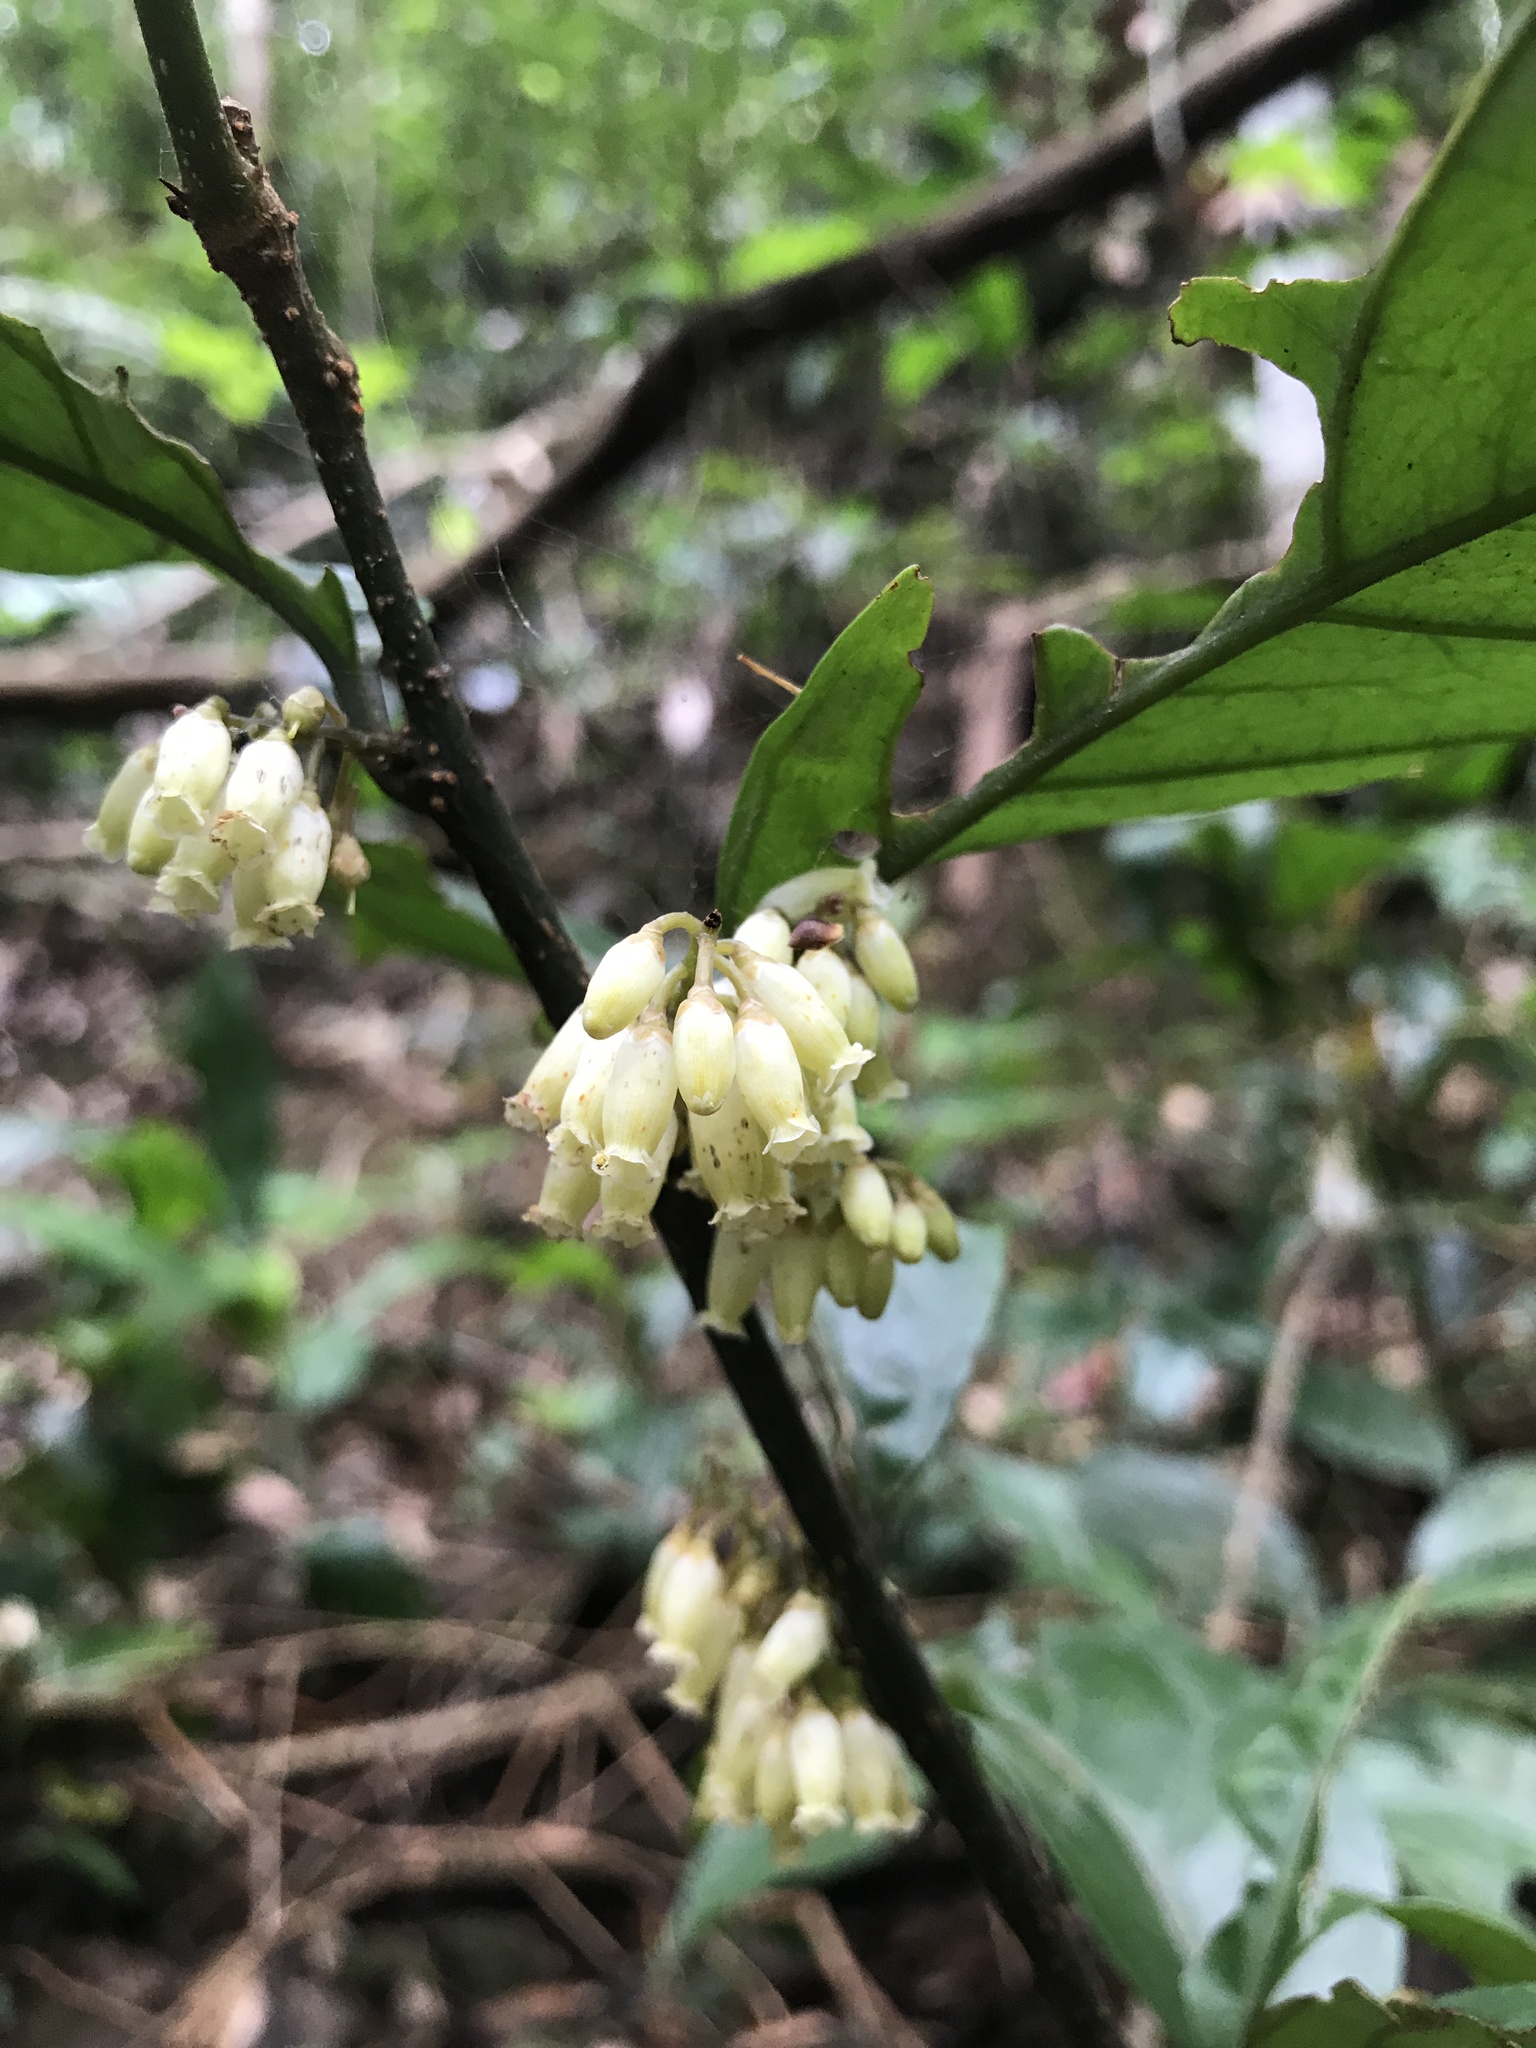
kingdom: Plantae
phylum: Tracheophyta
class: Magnoliopsida
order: Ericales
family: Primulaceae
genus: Maesa
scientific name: Maesa japonica
